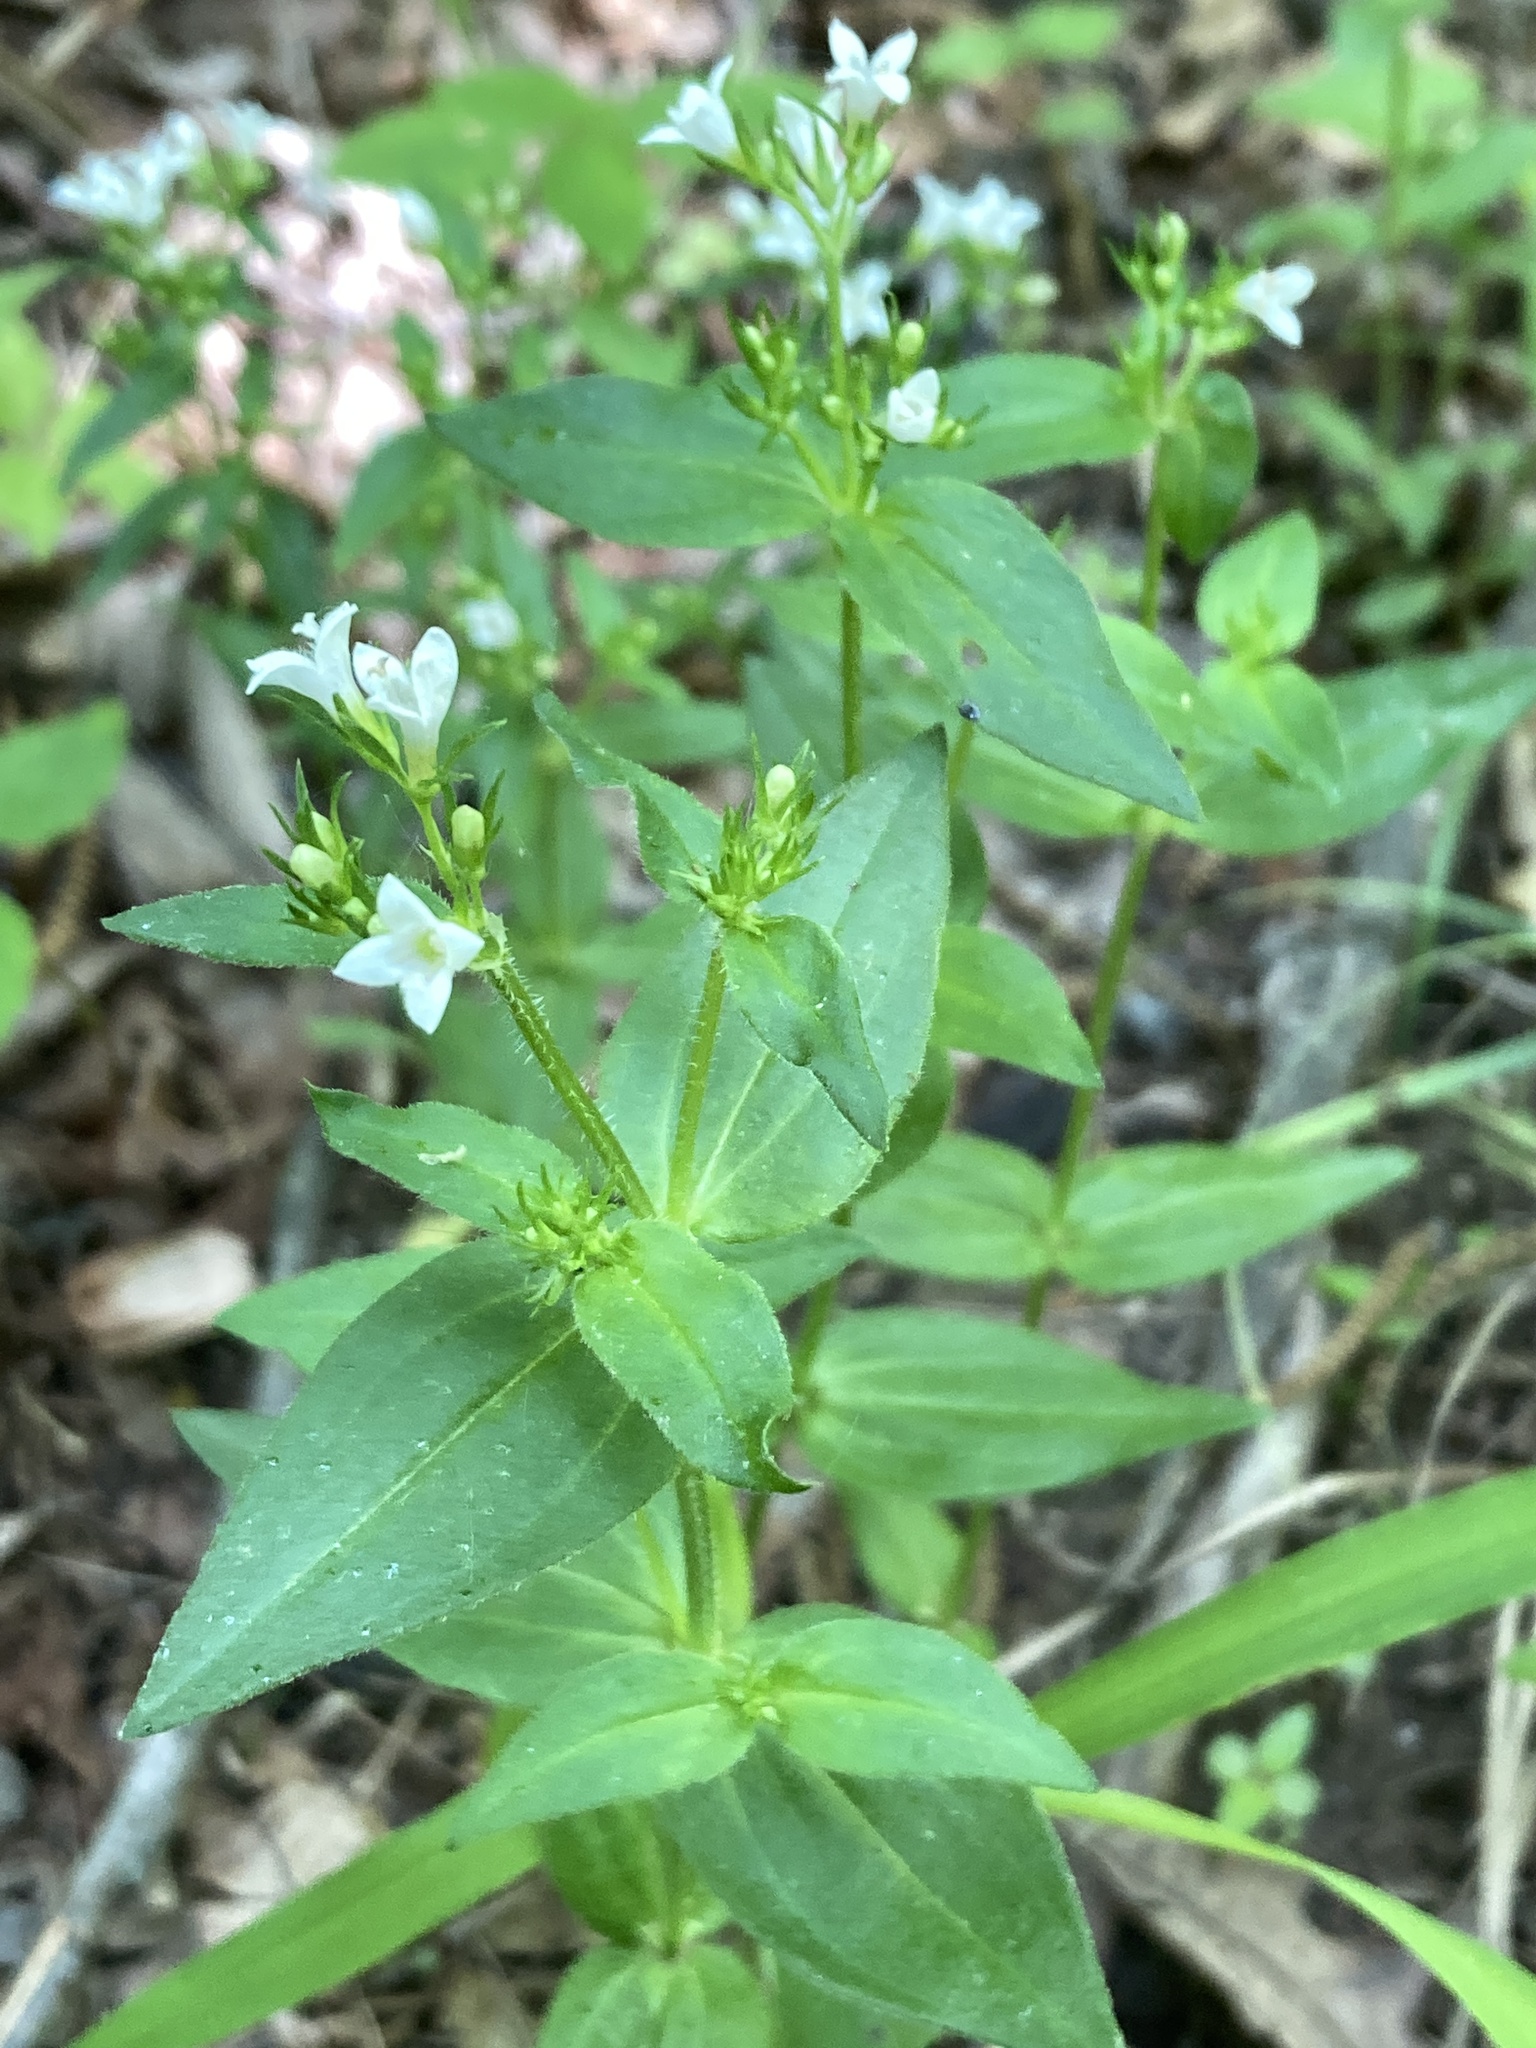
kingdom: Plantae
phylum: Tracheophyta
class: Magnoliopsida
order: Gentianales
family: Rubiaceae
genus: Houstonia
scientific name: Houstonia purpurea
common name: Summer bluet
